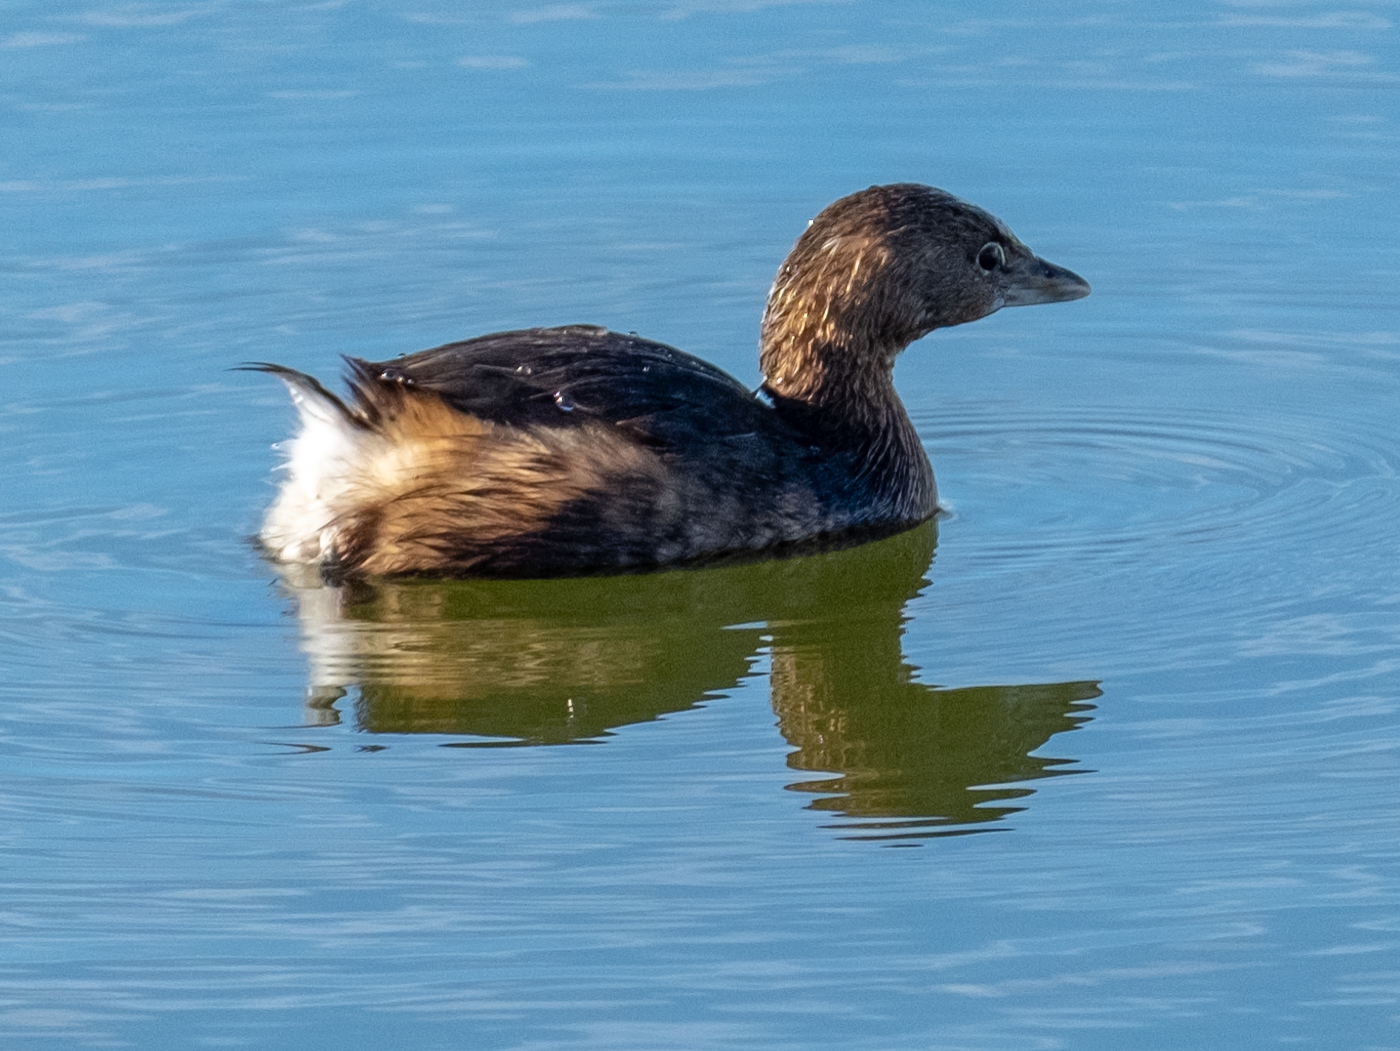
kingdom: Animalia
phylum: Chordata
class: Aves
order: Podicipediformes
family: Podicipedidae
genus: Podilymbus
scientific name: Podilymbus podiceps
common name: Pied-billed grebe
